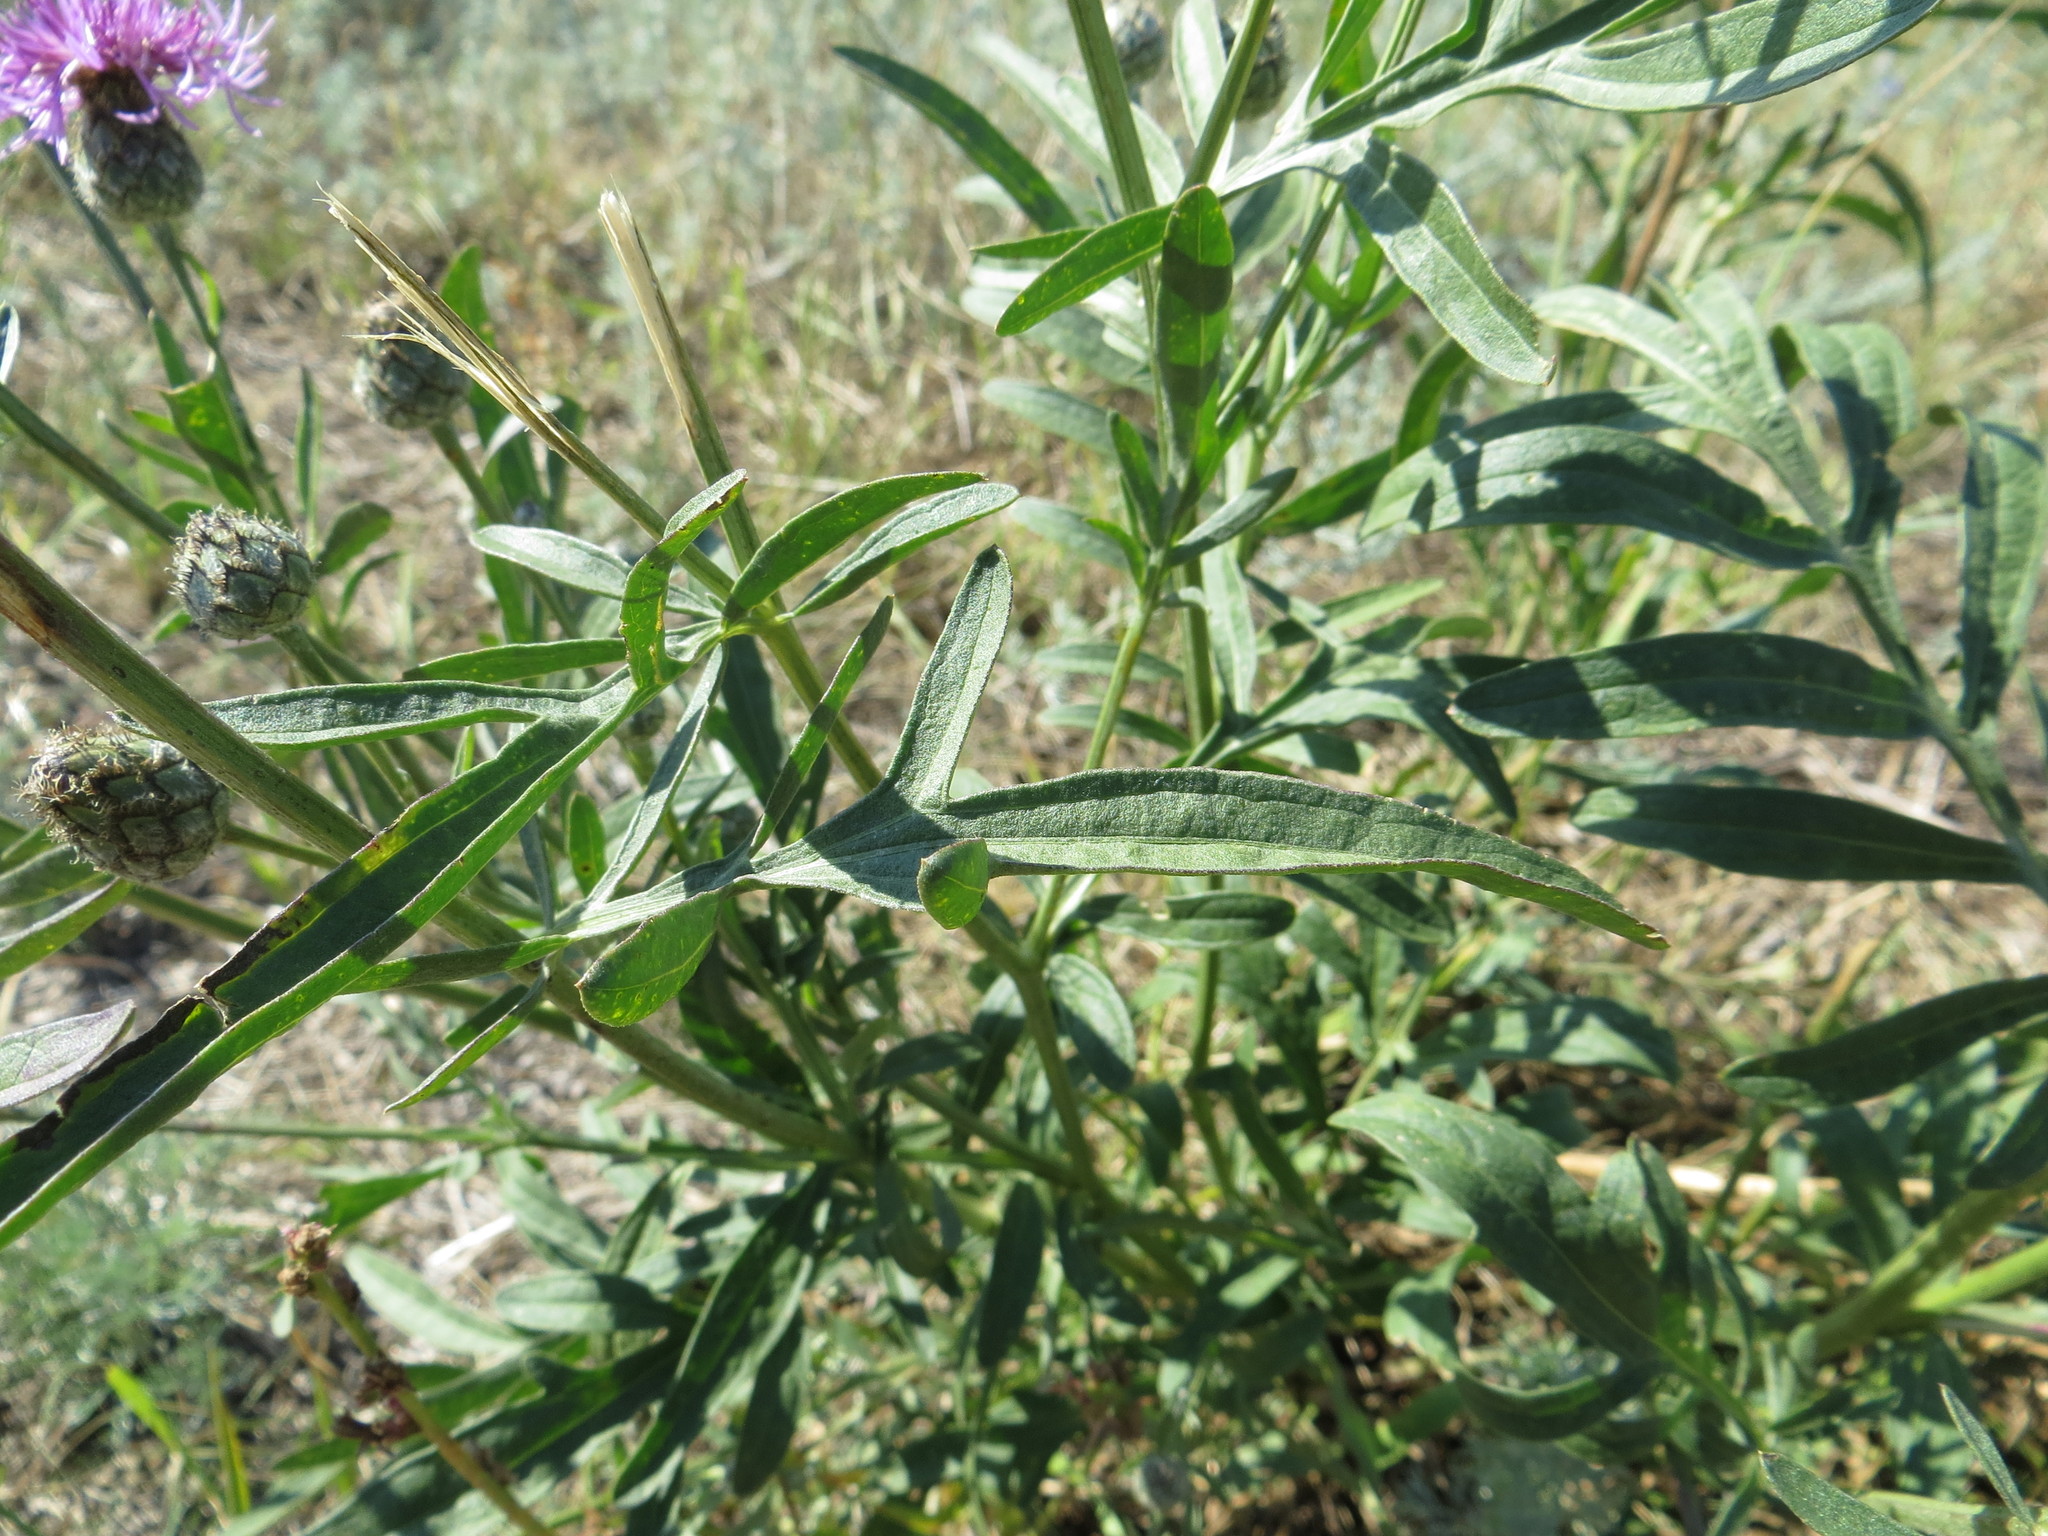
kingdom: Plantae
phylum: Tracheophyta
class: Magnoliopsida
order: Asterales
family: Asteraceae
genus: Centaurea
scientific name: Centaurea scabiosa
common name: Greater knapweed
